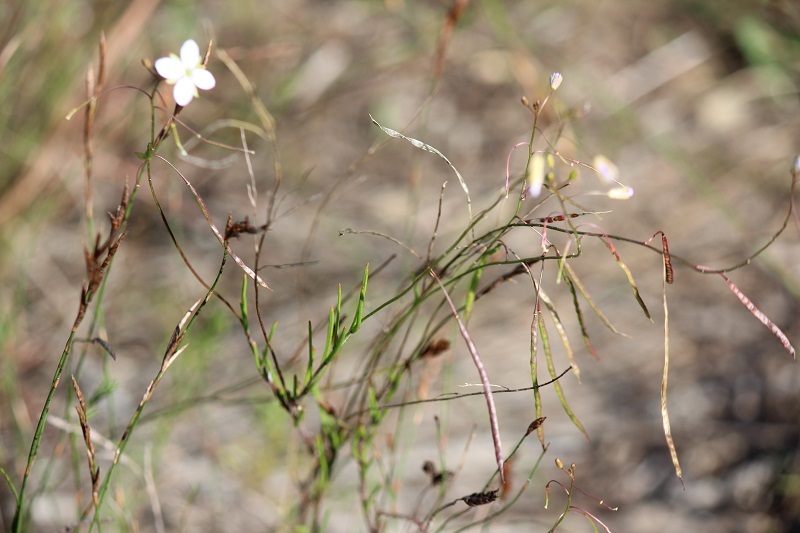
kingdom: Plantae
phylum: Tracheophyta
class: Magnoliopsida
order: Brassicales
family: Brassicaceae
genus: Heliophila
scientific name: Heliophila subulata
